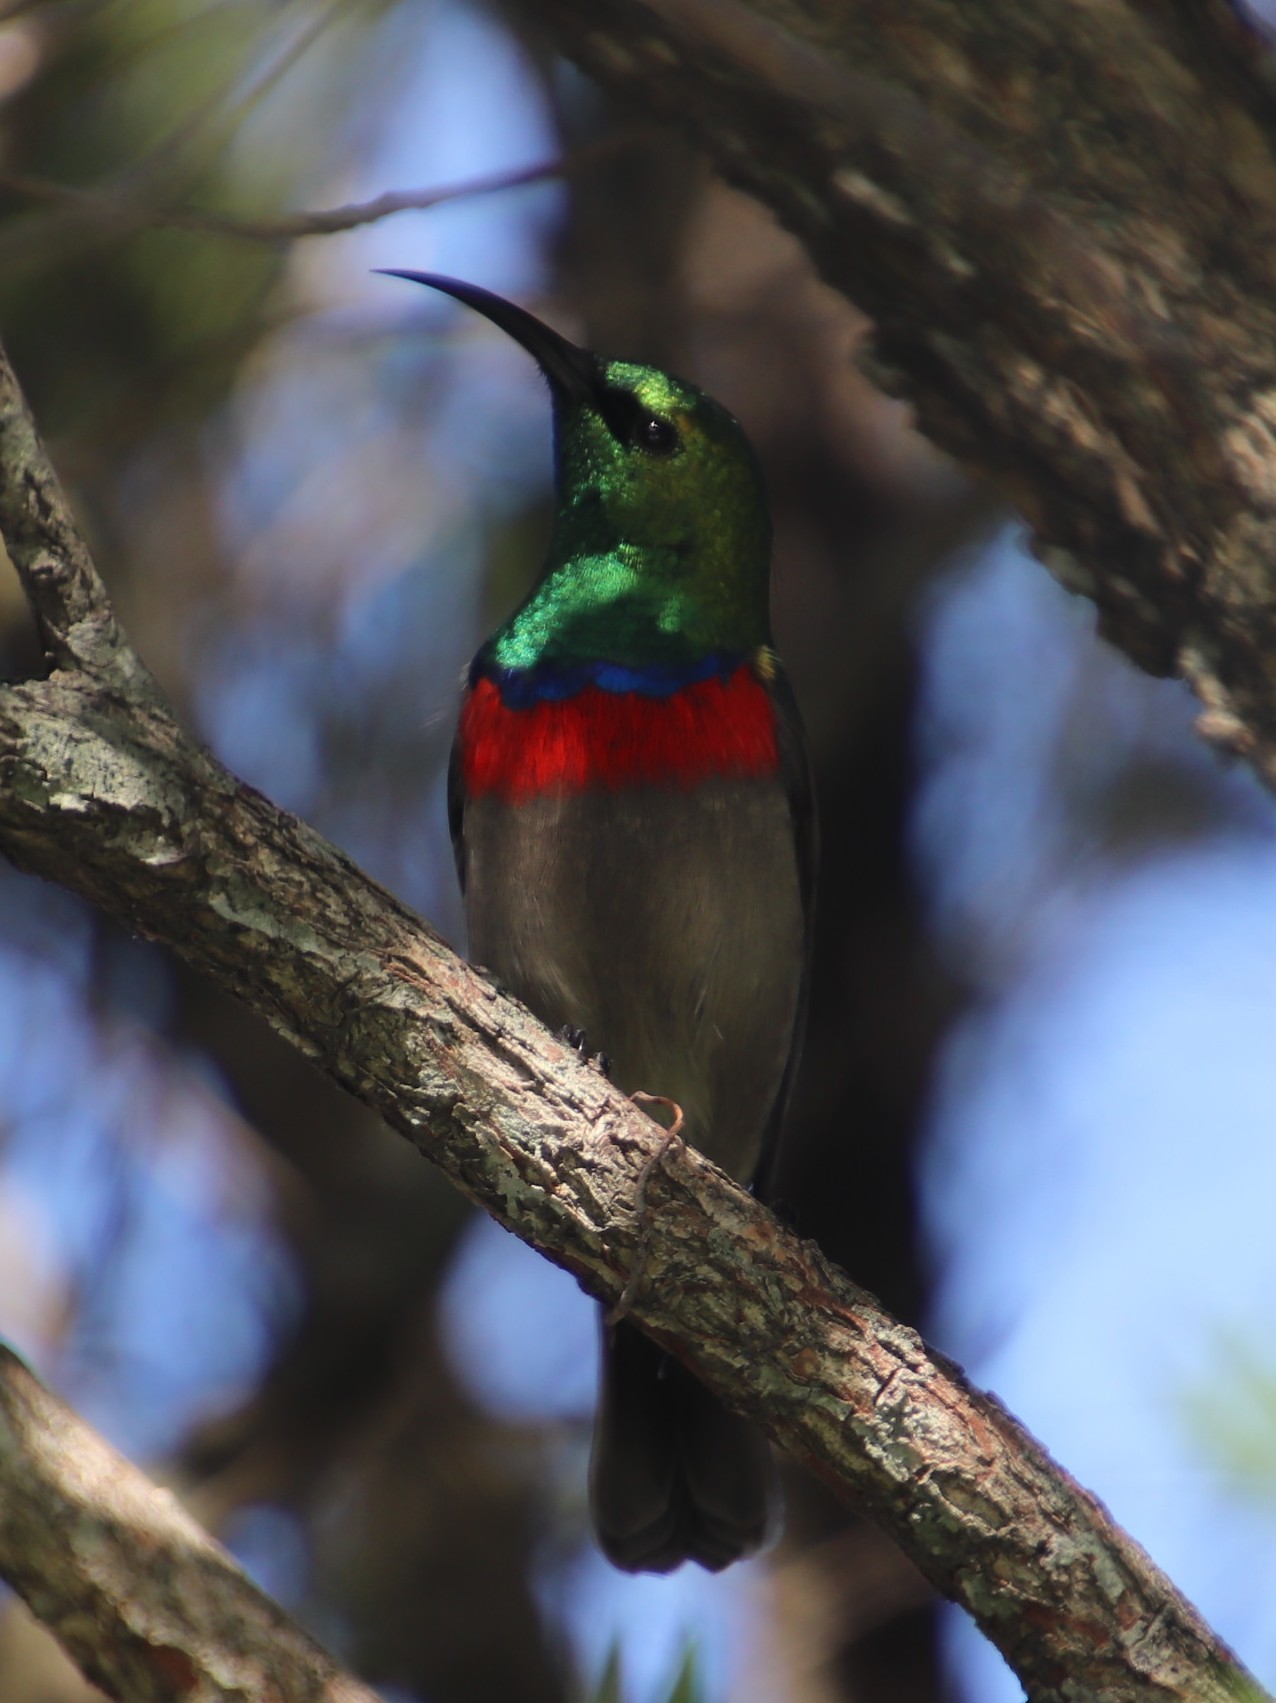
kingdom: Animalia
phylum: Chordata
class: Aves
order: Passeriformes
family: Nectariniidae
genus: Cinnyris
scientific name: Cinnyris chalybeus
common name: Southern double-collared sunbird
